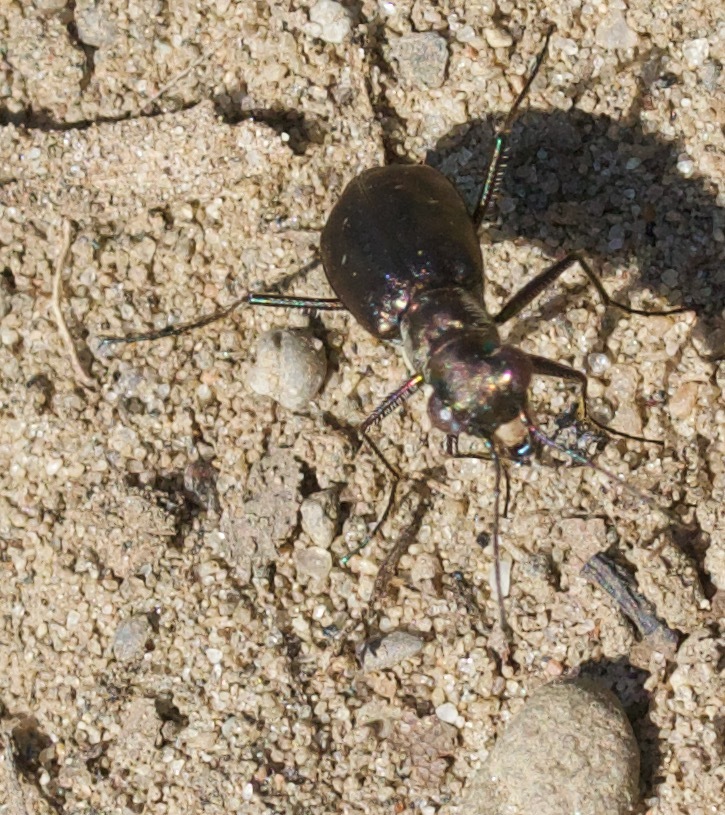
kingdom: Animalia
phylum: Arthropoda
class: Insecta
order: Coleoptera
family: Carabidae
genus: Cicindela
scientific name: Cicindela punctulata
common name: Punctured tiger beetle
